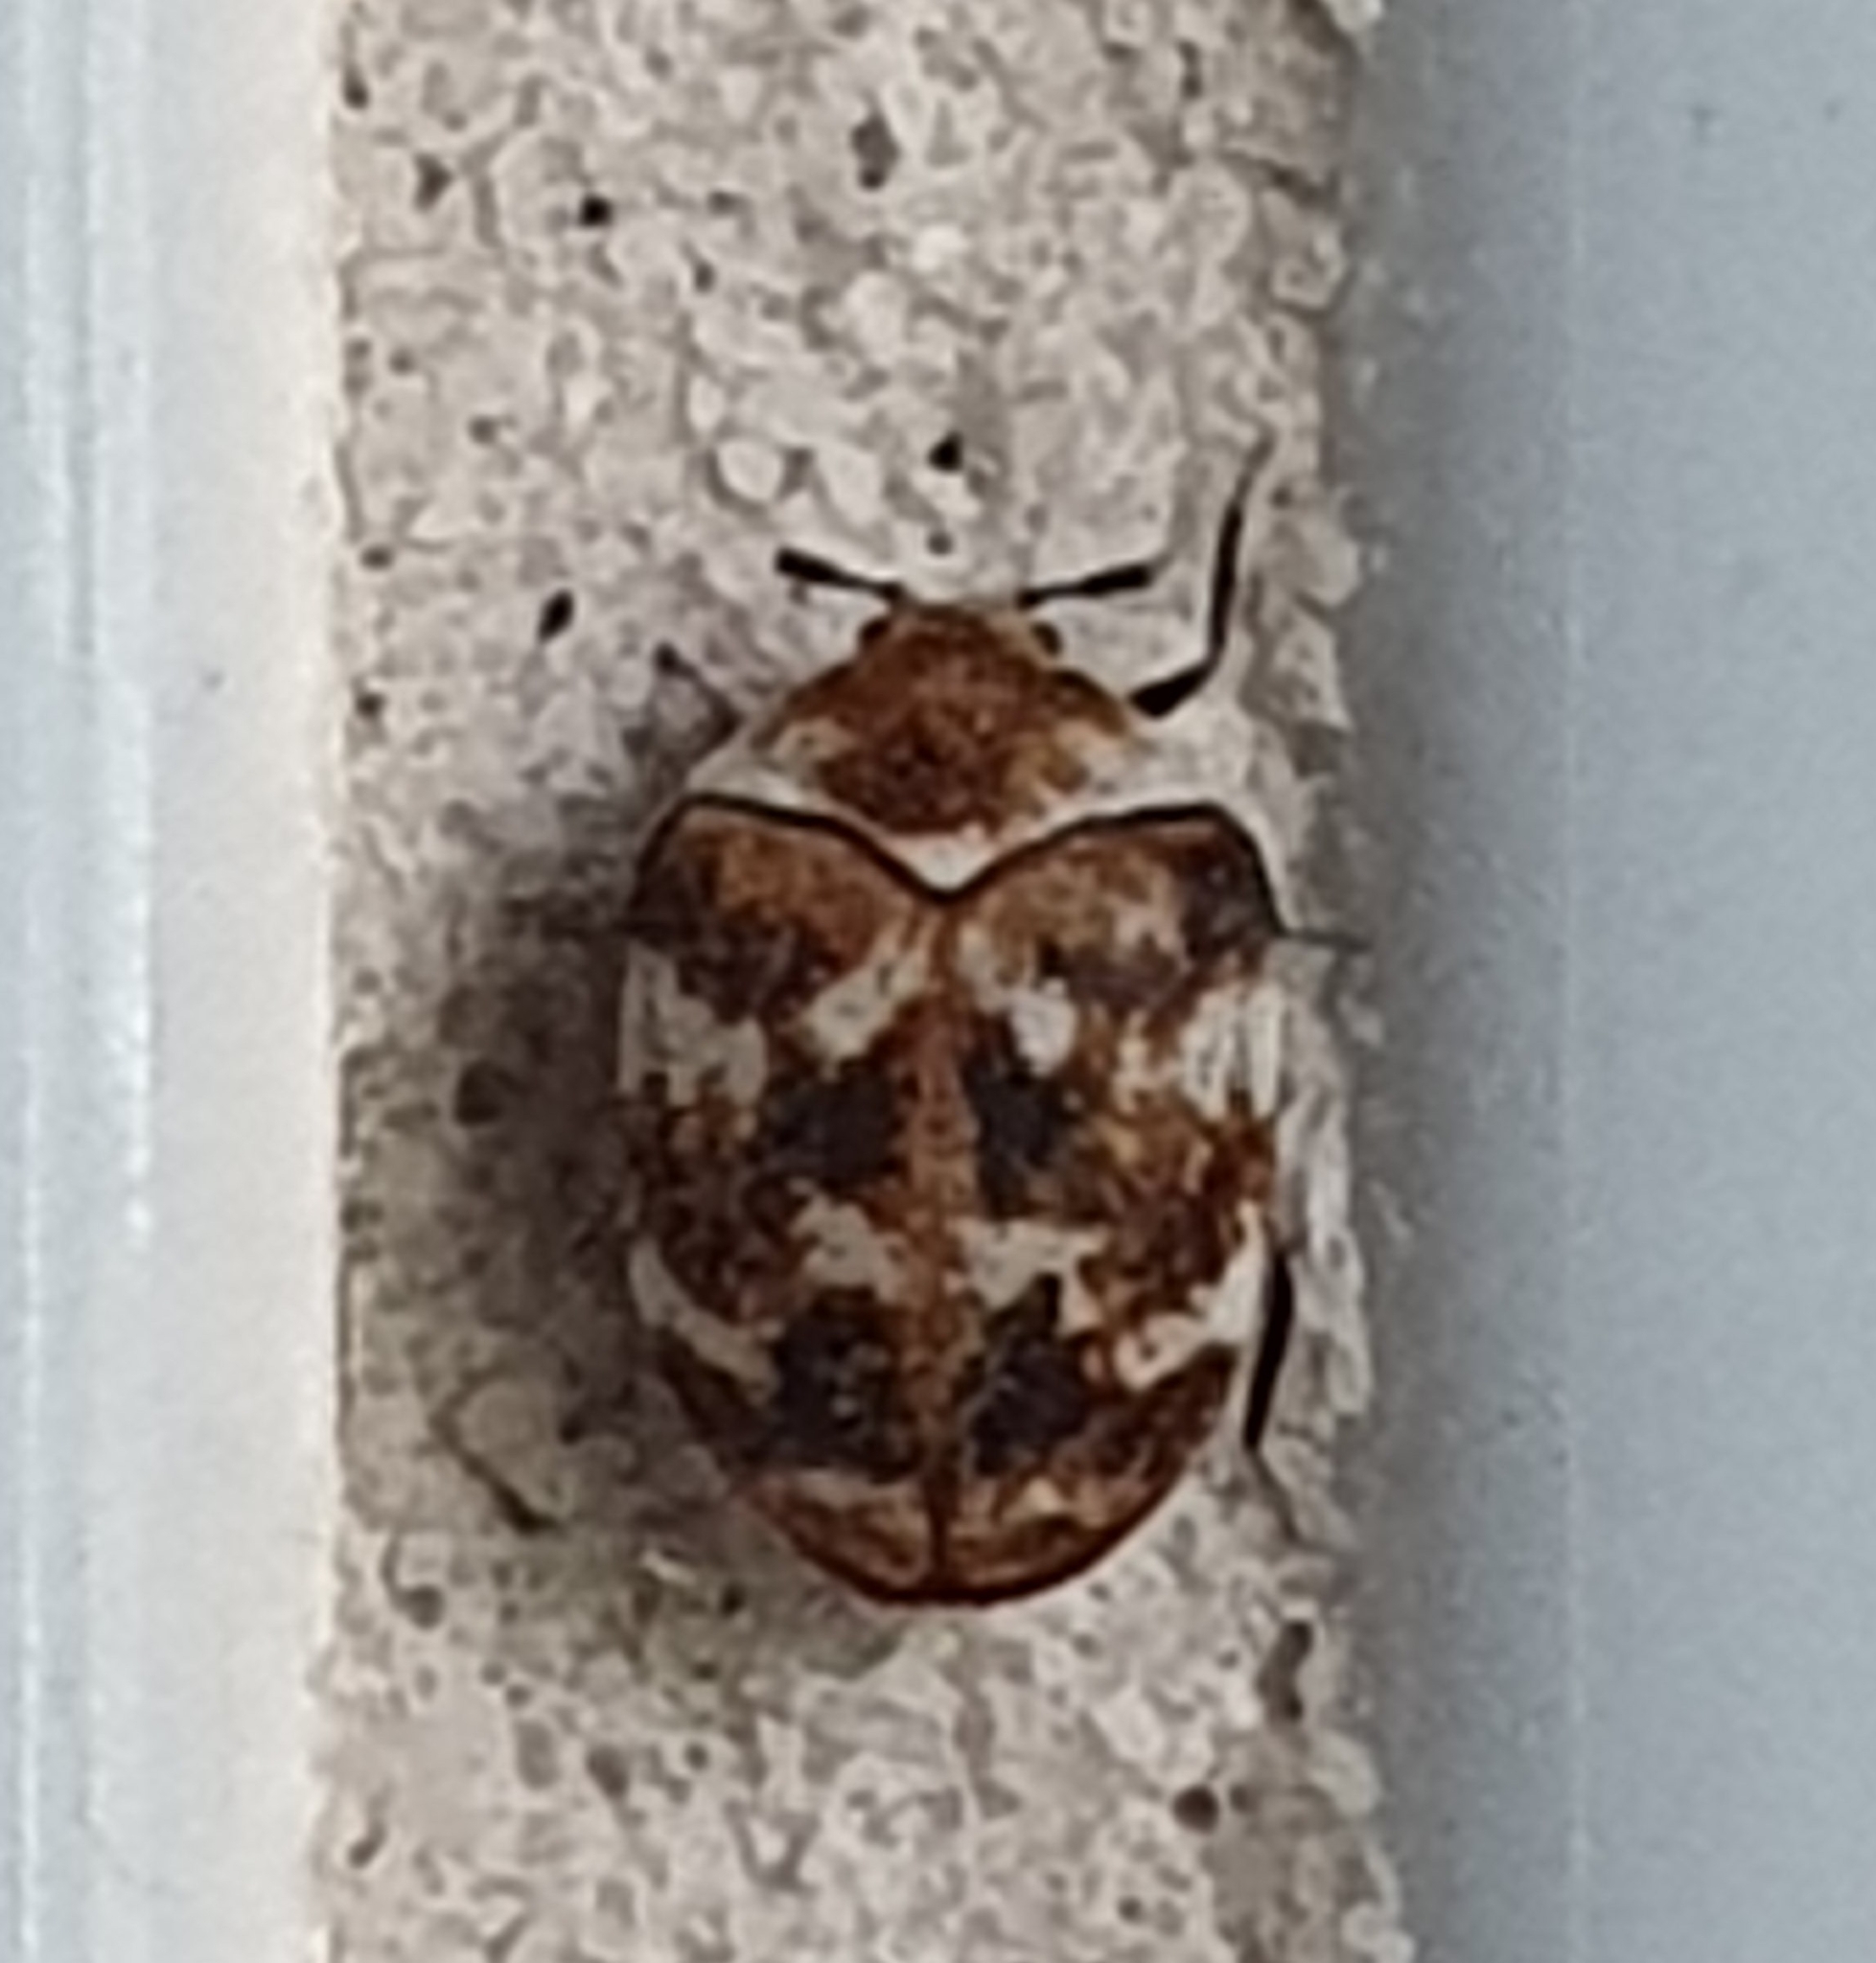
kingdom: Animalia
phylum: Arthropoda
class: Insecta
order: Coleoptera
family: Dermestidae
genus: Anthrenus
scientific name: Anthrenus verbasci
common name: Varied carpet beetle
